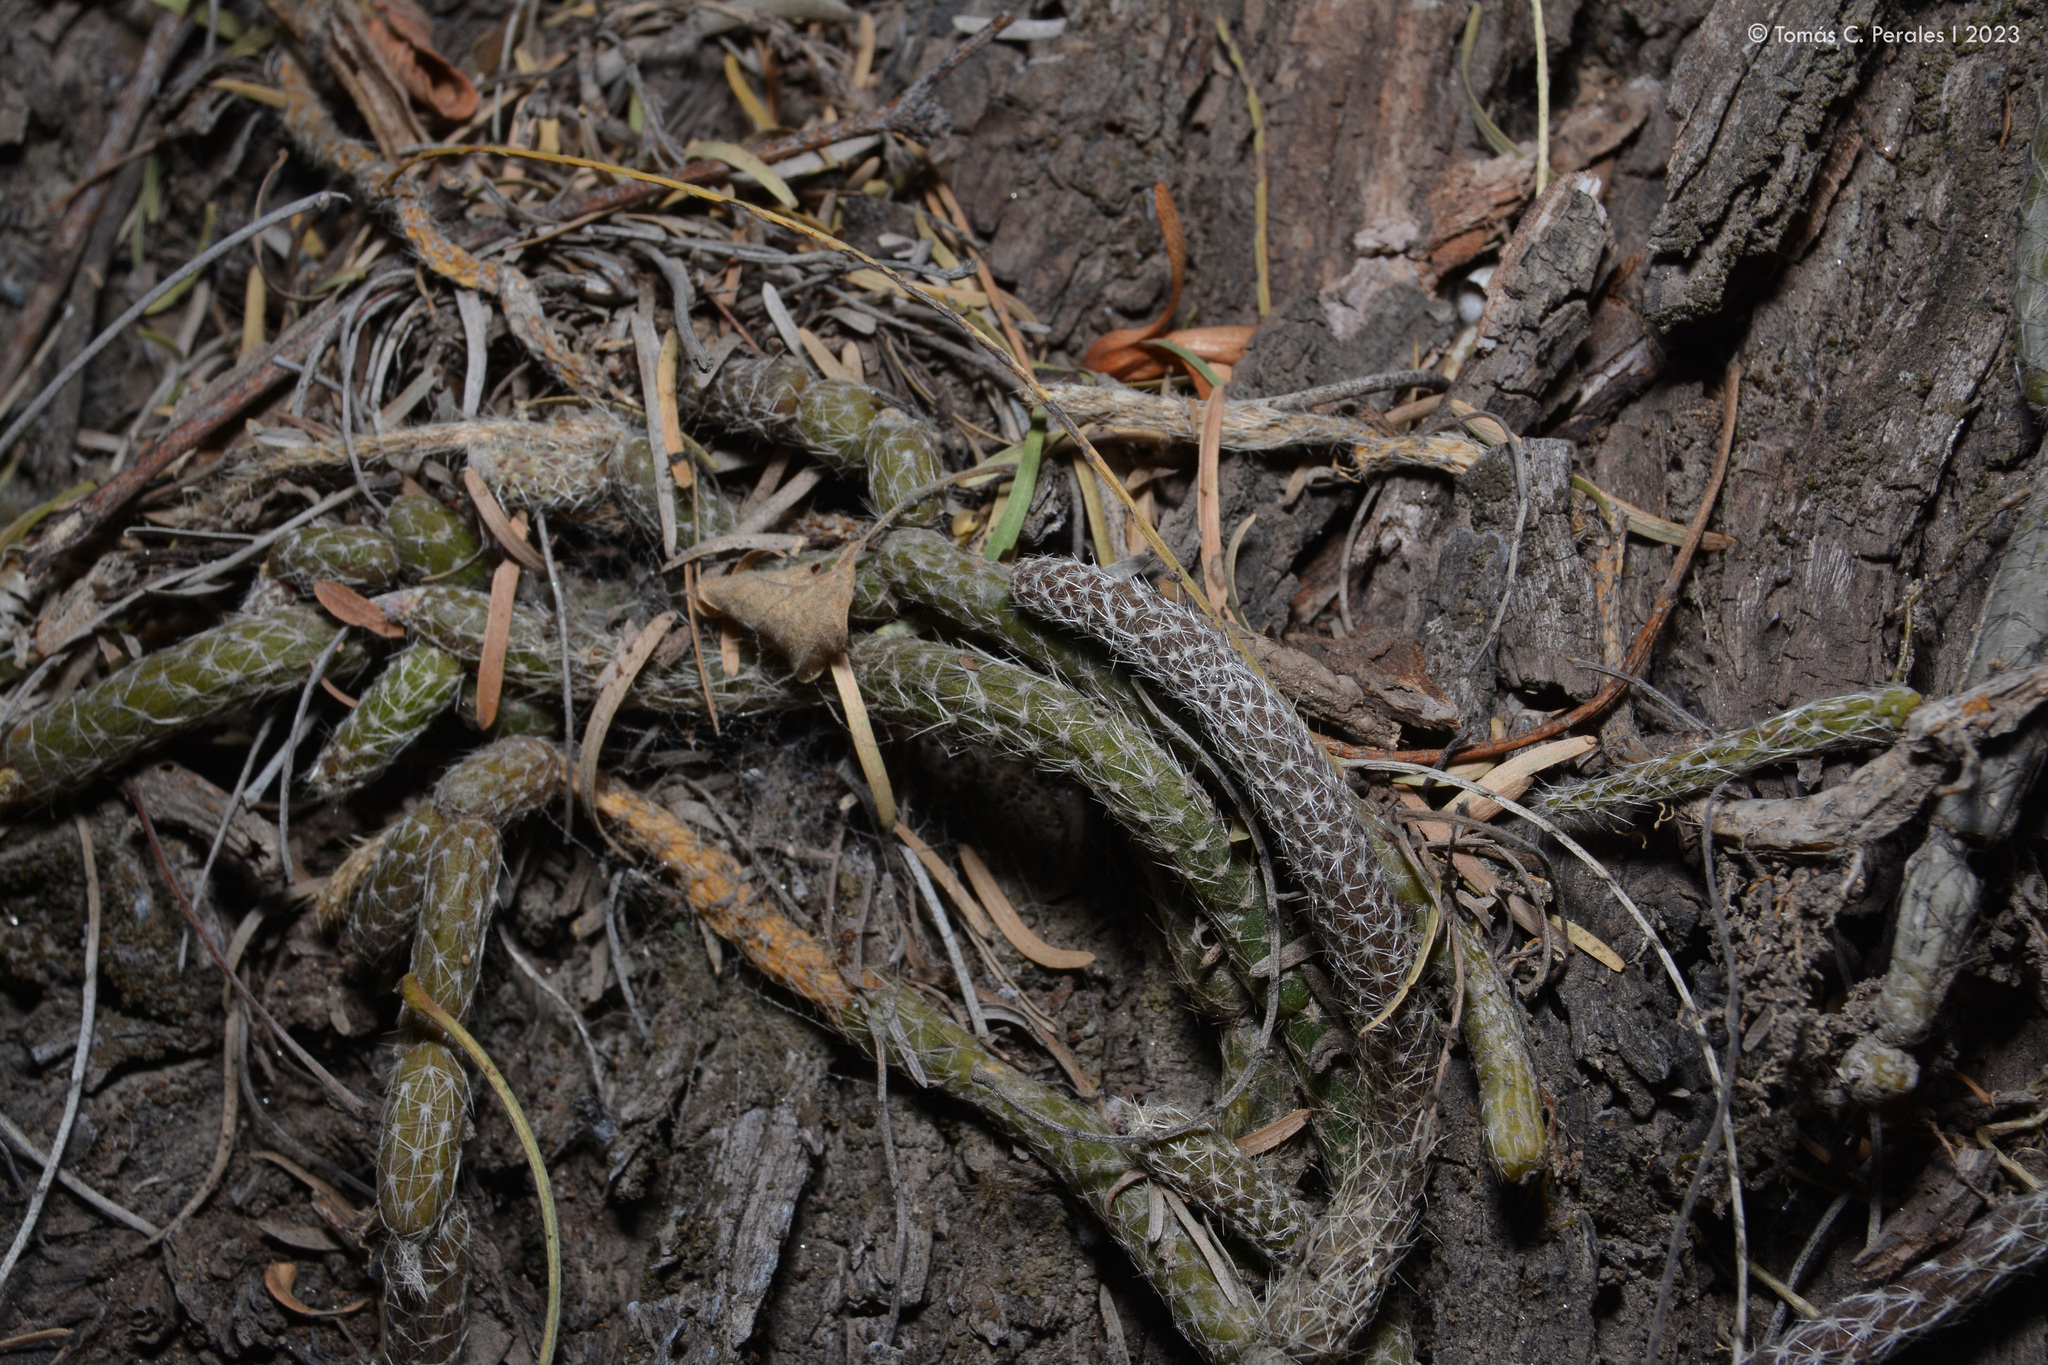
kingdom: Plantae
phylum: Tracheophyta
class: Magnoliopsida
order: Caryophyllales
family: Cactaceae
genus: Lepismium
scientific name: Lepismium lumbricoides
